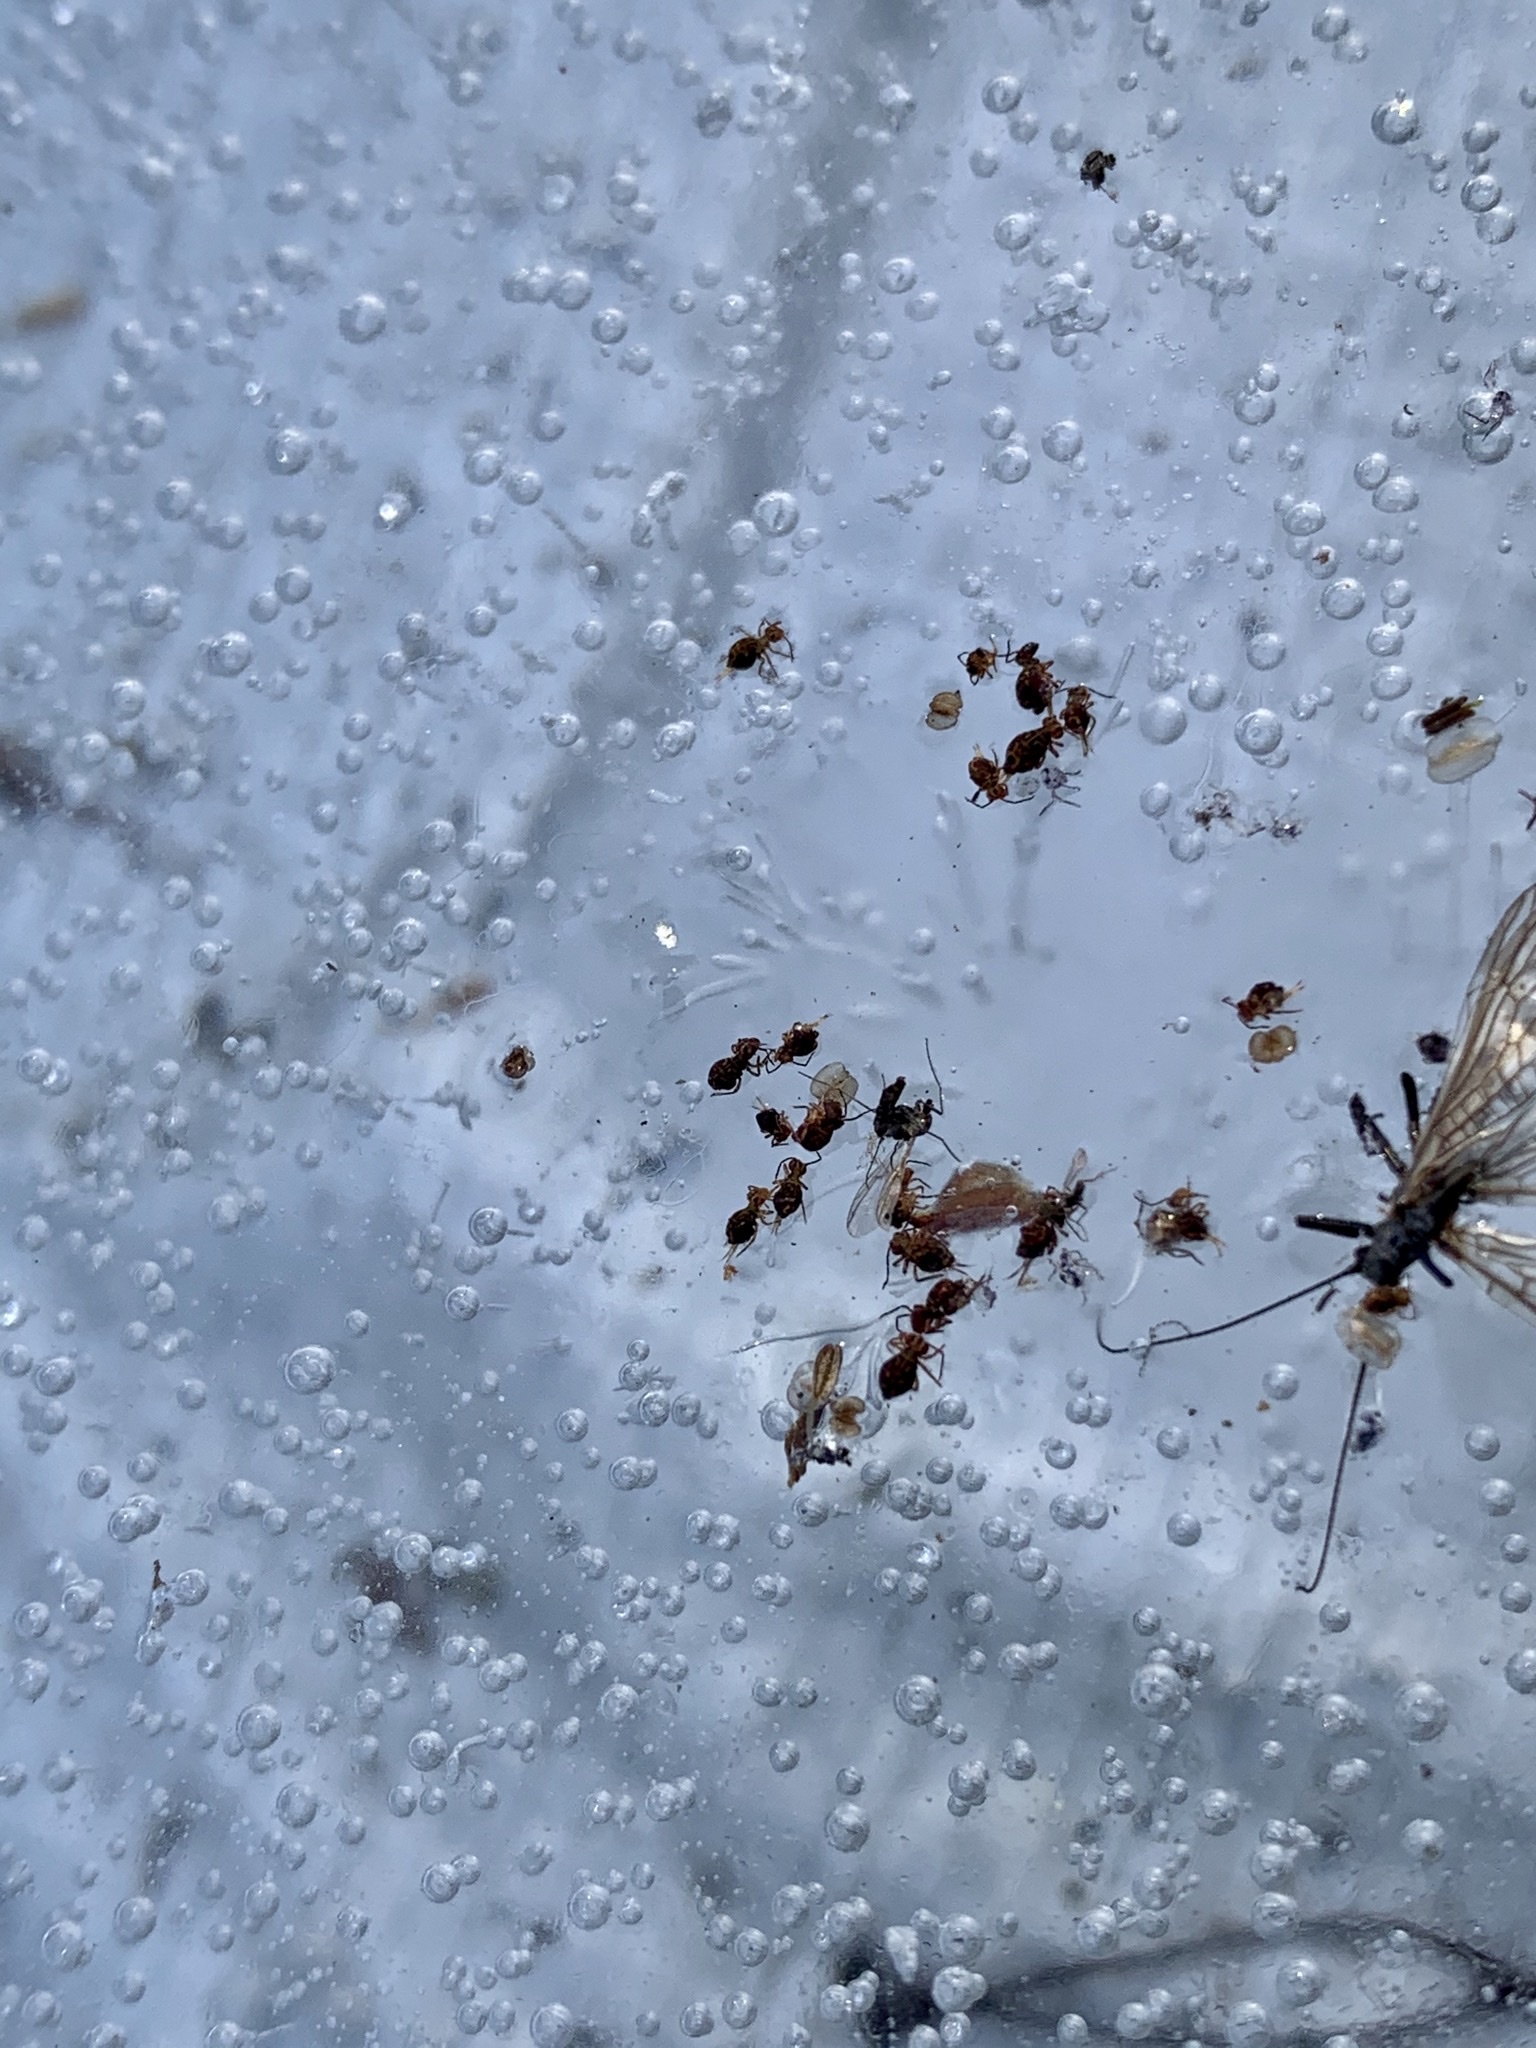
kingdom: Animalia
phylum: Arthropoda
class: Collembola
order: Symphypleona
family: Dicyrtomidae
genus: Dicyrtomina
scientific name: Dicyrtomina saundersi
